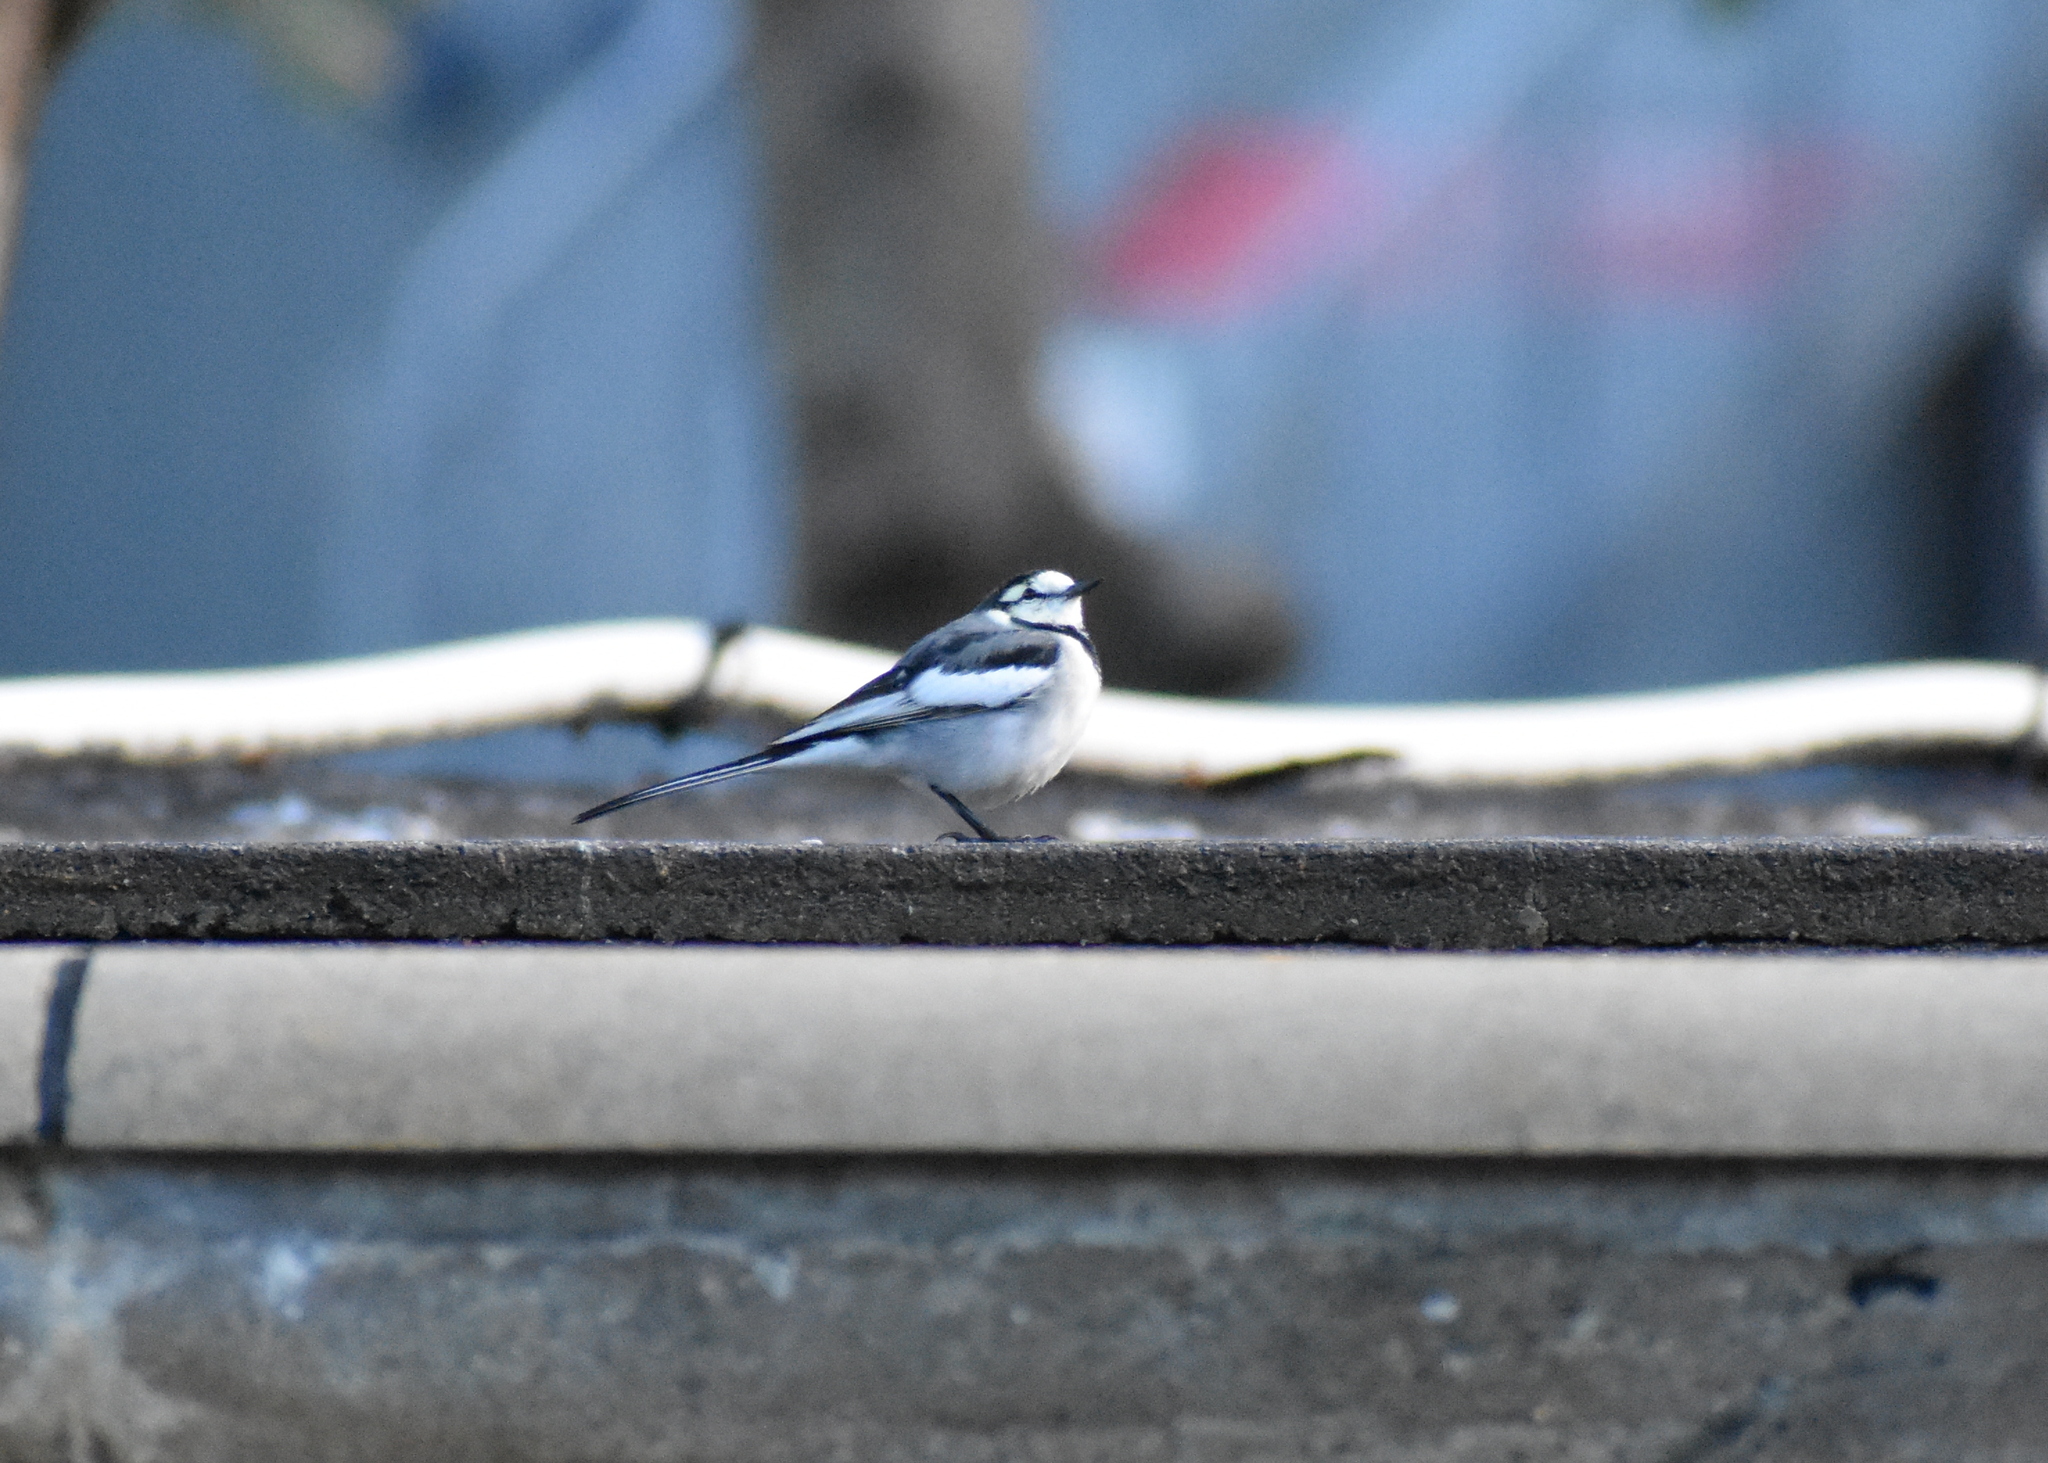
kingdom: Animalia
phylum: Chordata
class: Aves
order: Passeriformes
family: Motacillidae
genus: Motacilla
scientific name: Motacilla alba
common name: White wagtail
